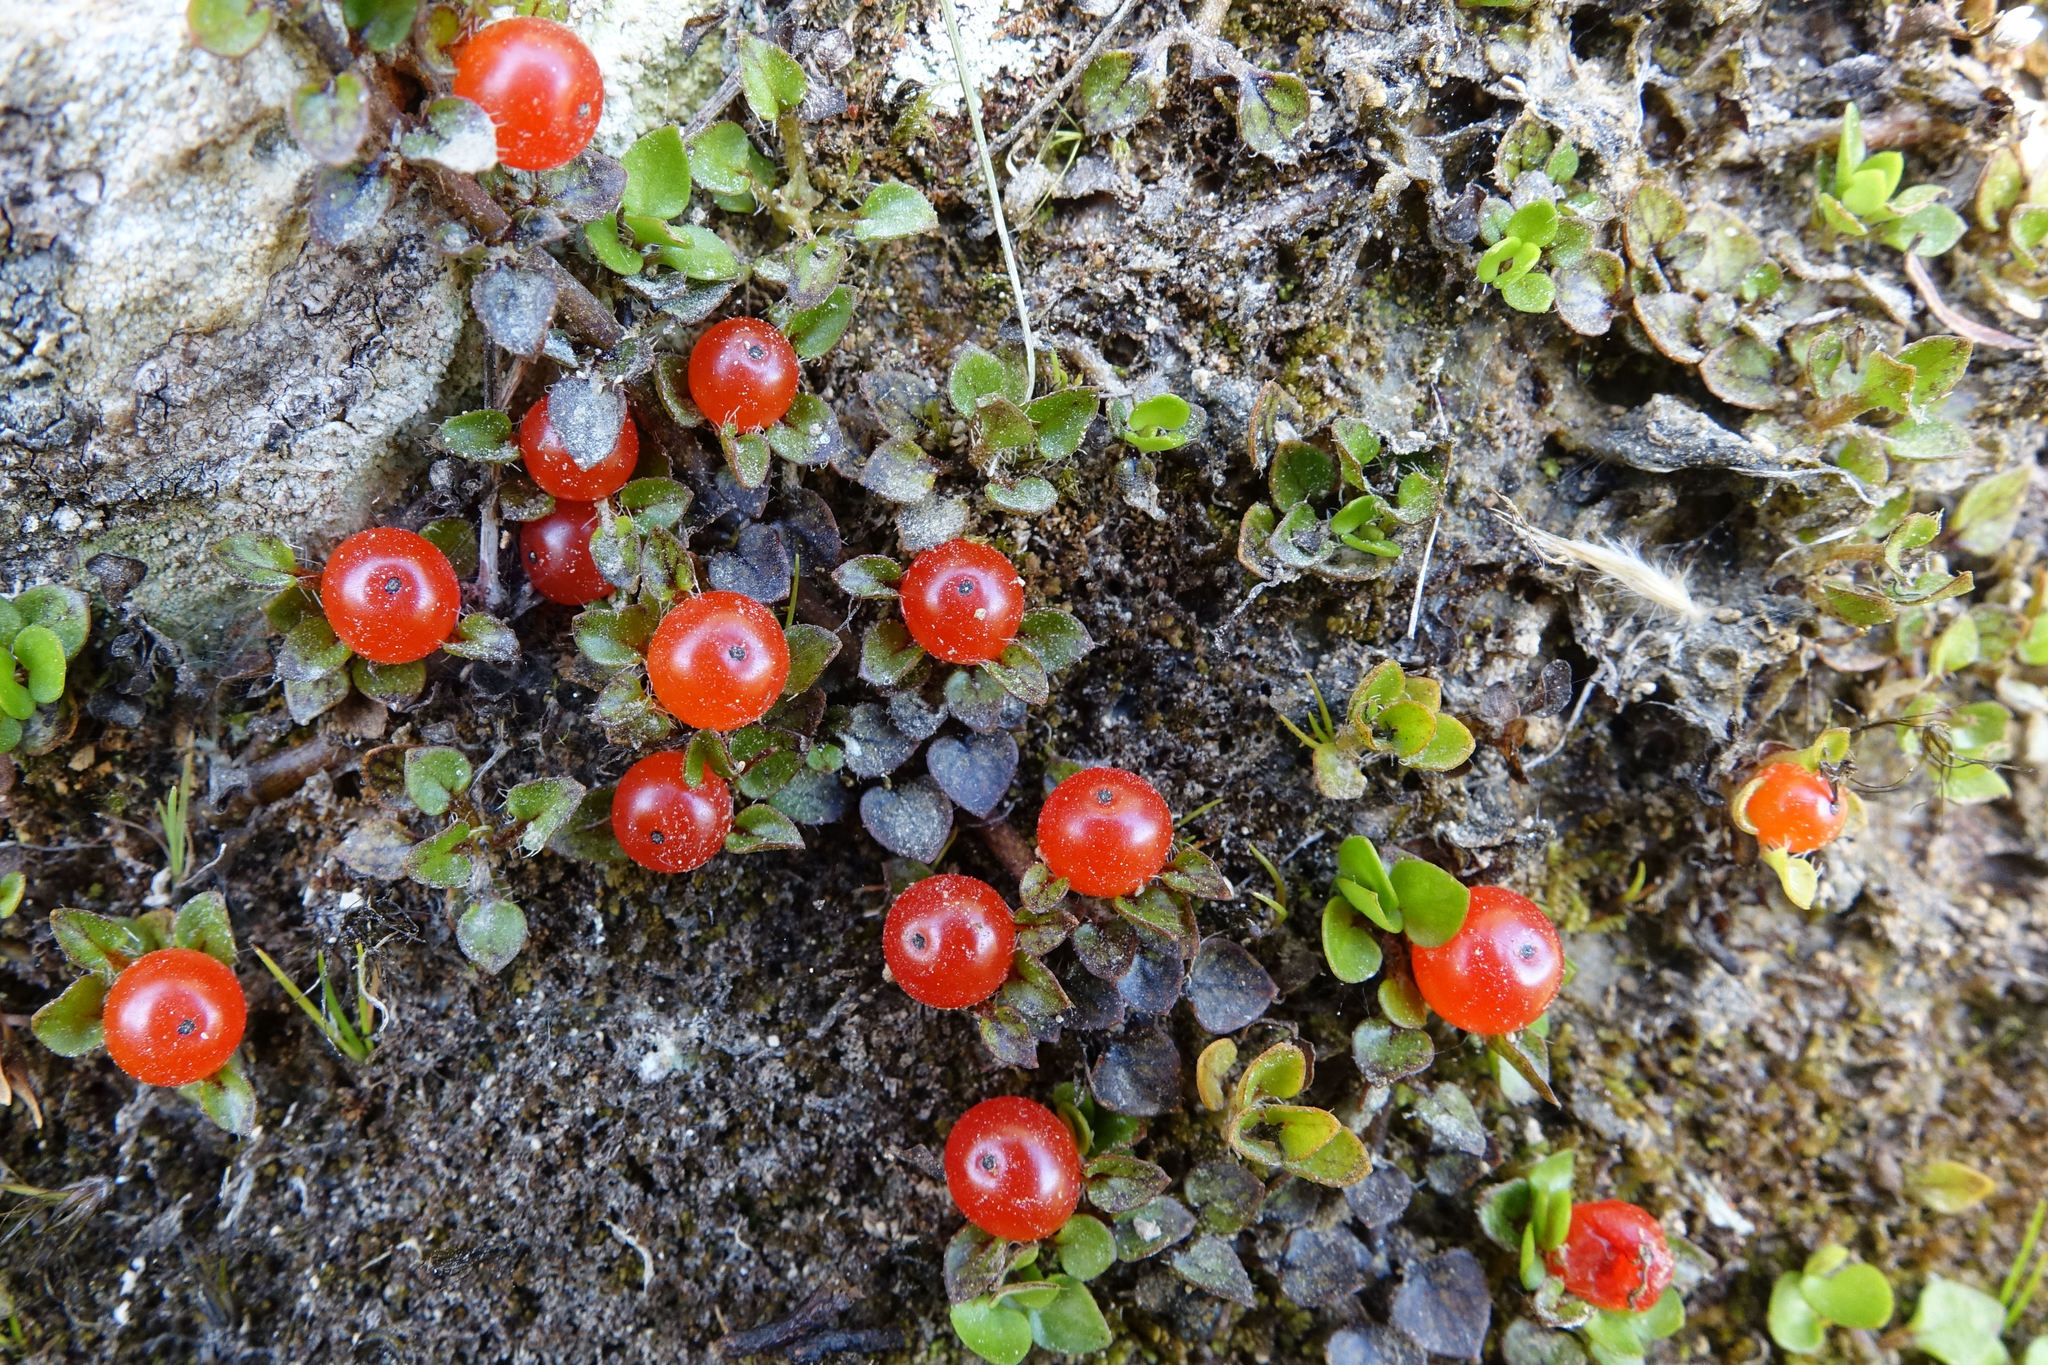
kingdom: Plantae
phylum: Tracheophyta
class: Magnoliopsida
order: Gentianales
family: Rubiaceae
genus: Nertera
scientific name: Nertera ciliata
